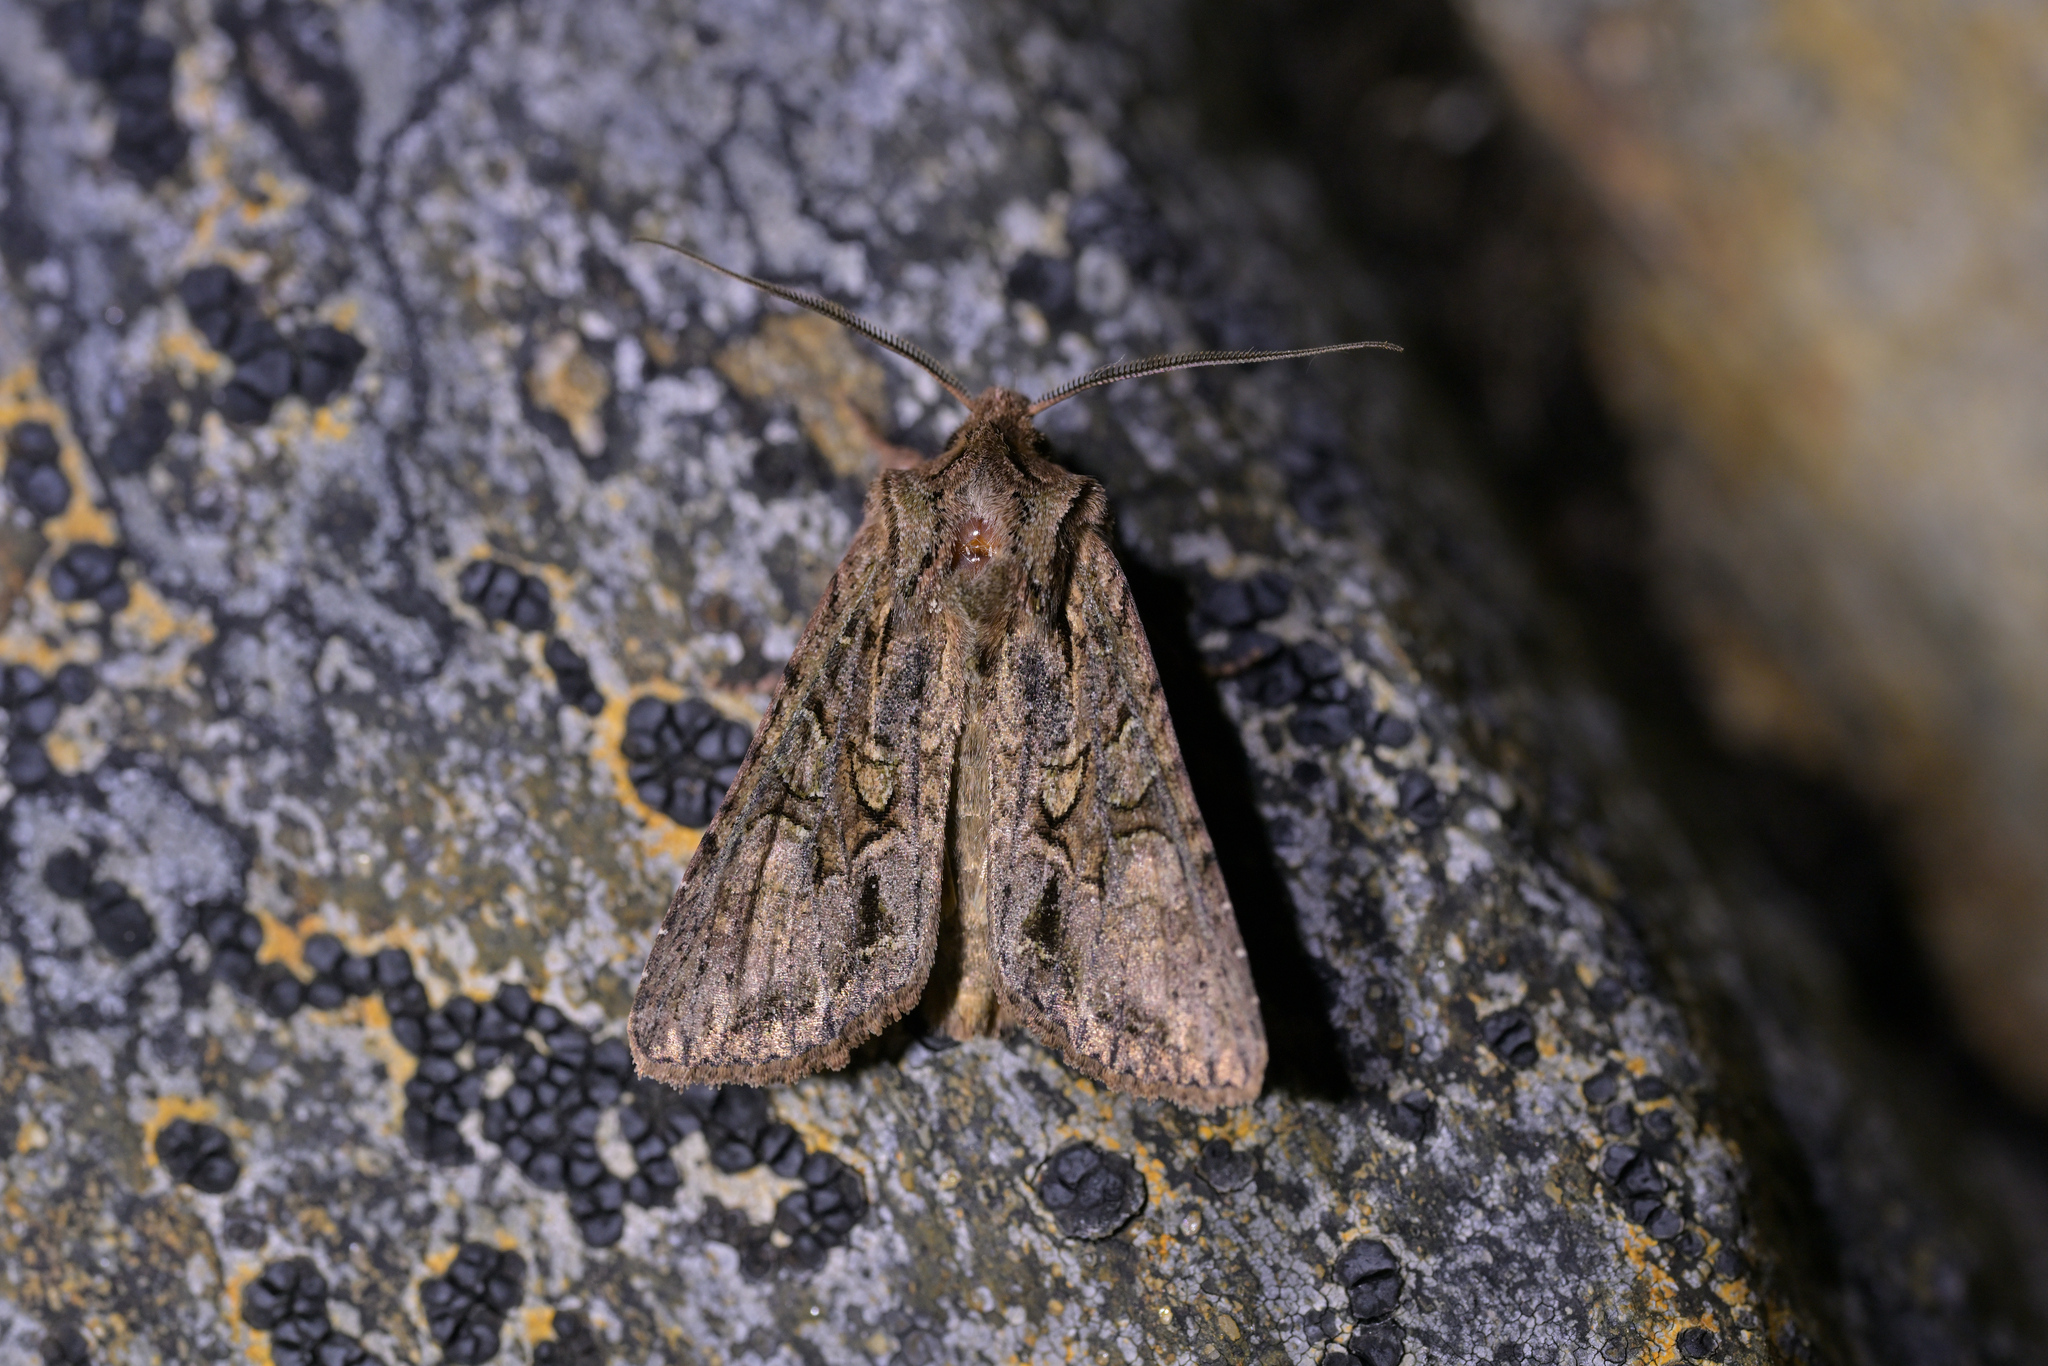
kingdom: Animalia
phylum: Arthropoda
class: Insecta
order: Lepidoptera
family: Noctuidae
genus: Ichneutica
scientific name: Ichneutica mutans
